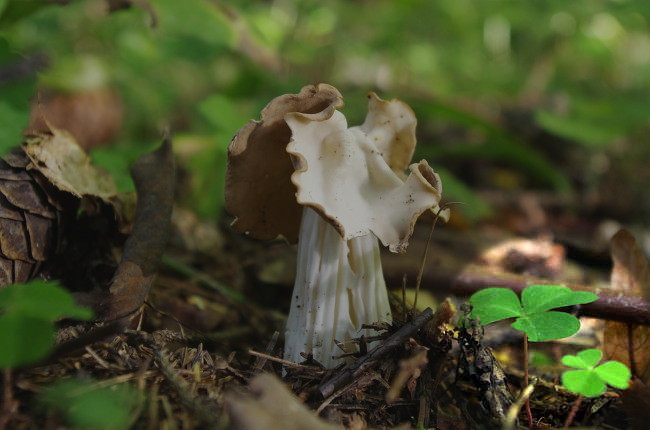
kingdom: Plantae
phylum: Tracheophyta
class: Magnoliopsida
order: Oxalidales
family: Oxalidaceae
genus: Oxalis
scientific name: Oxalis acetosella
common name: Wood-sorrel
